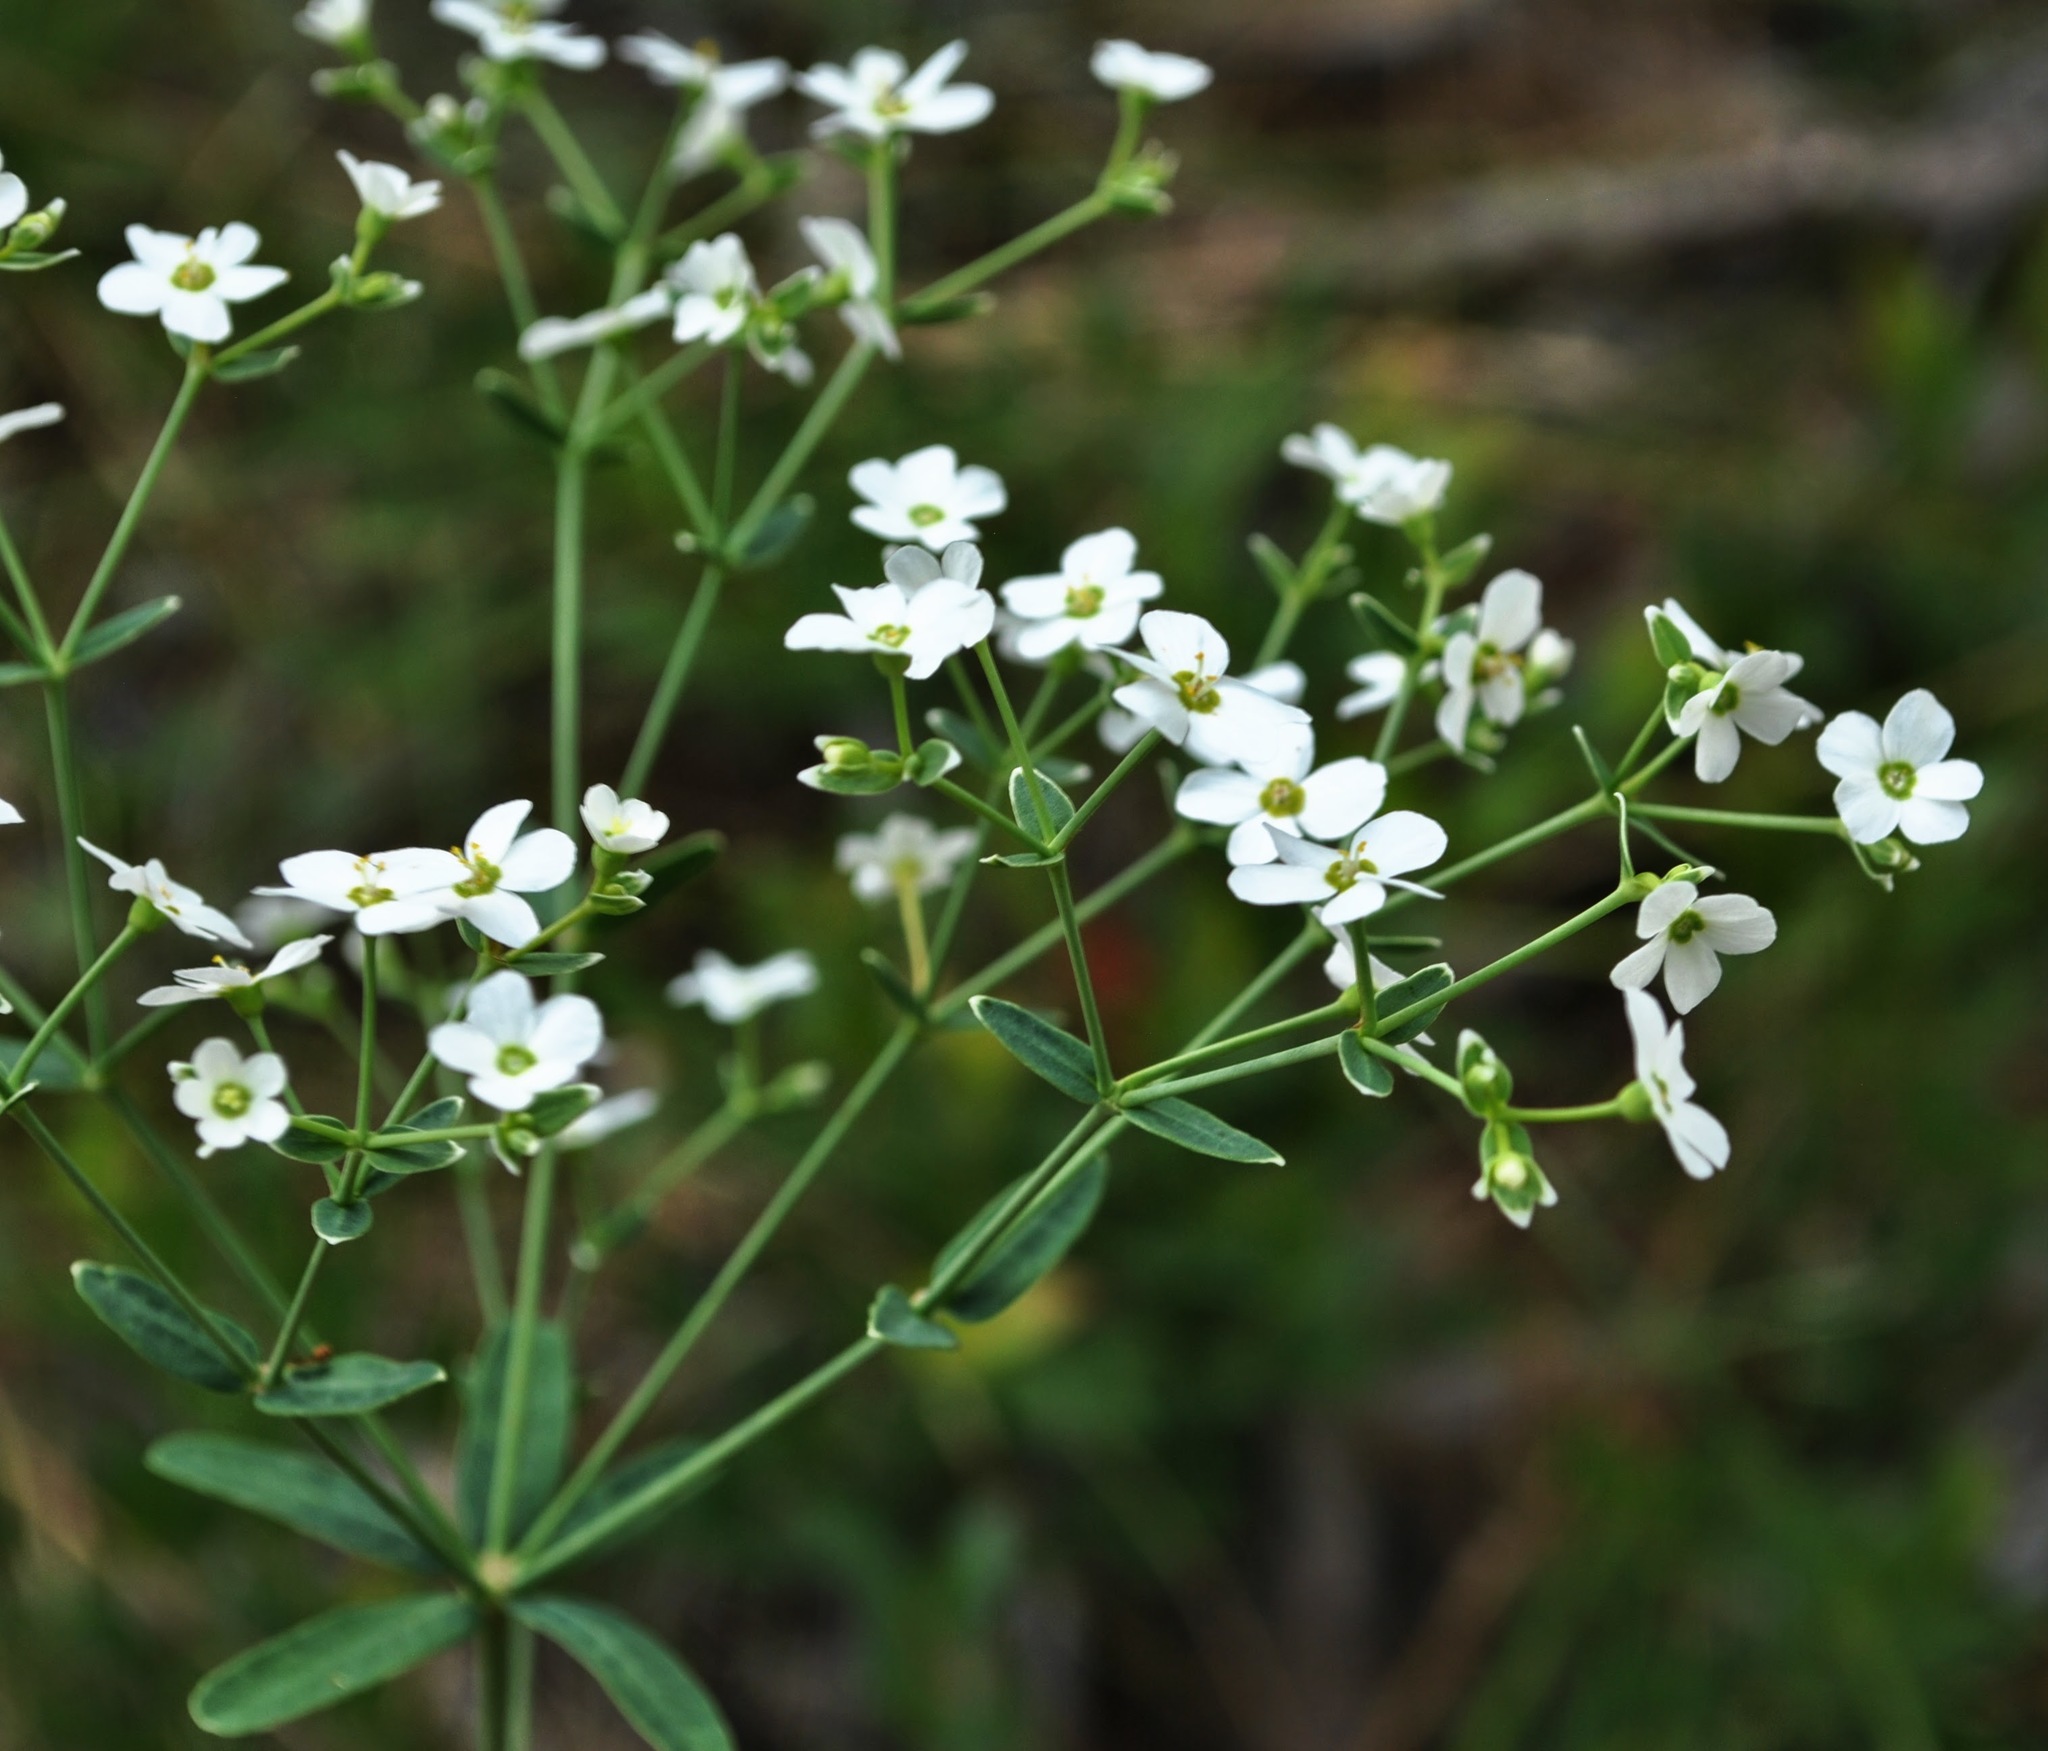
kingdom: Plantae
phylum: Tracheophyta
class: Magnoliopsida
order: Malpighiales
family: Euphorbiaceae
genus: Euphorbia
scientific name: Euphorbia corollata
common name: Flowering spurge
